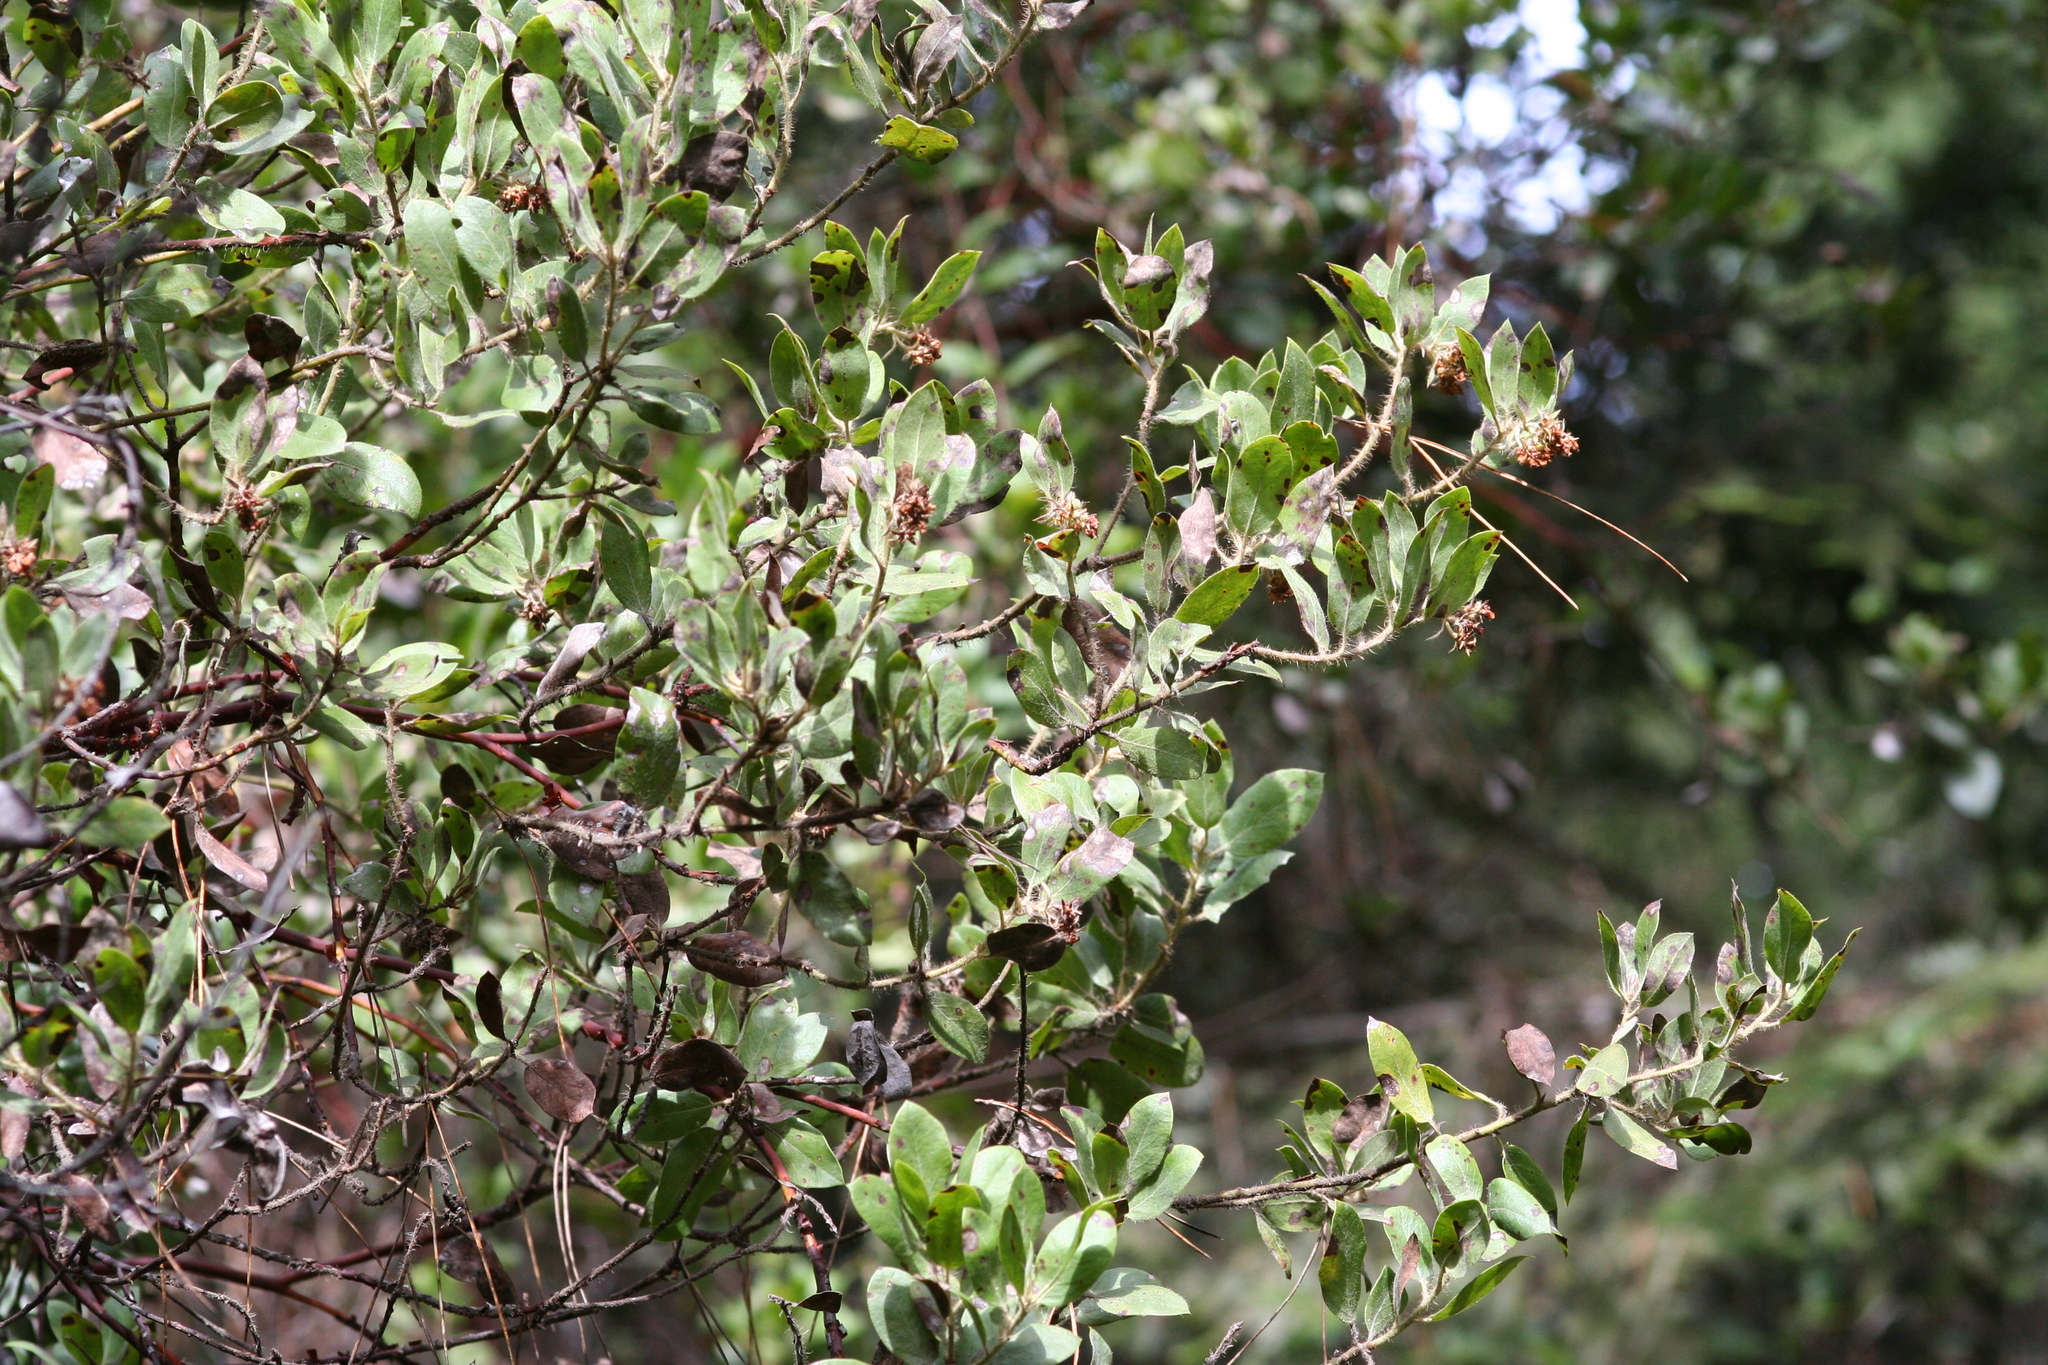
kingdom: Plantae
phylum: Tracheophyta
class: Magnoliopsida
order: Ericales
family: Ericaceae
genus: Arctostaphylos
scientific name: Arctostaphylos columbiana
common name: Bristly bearberry
